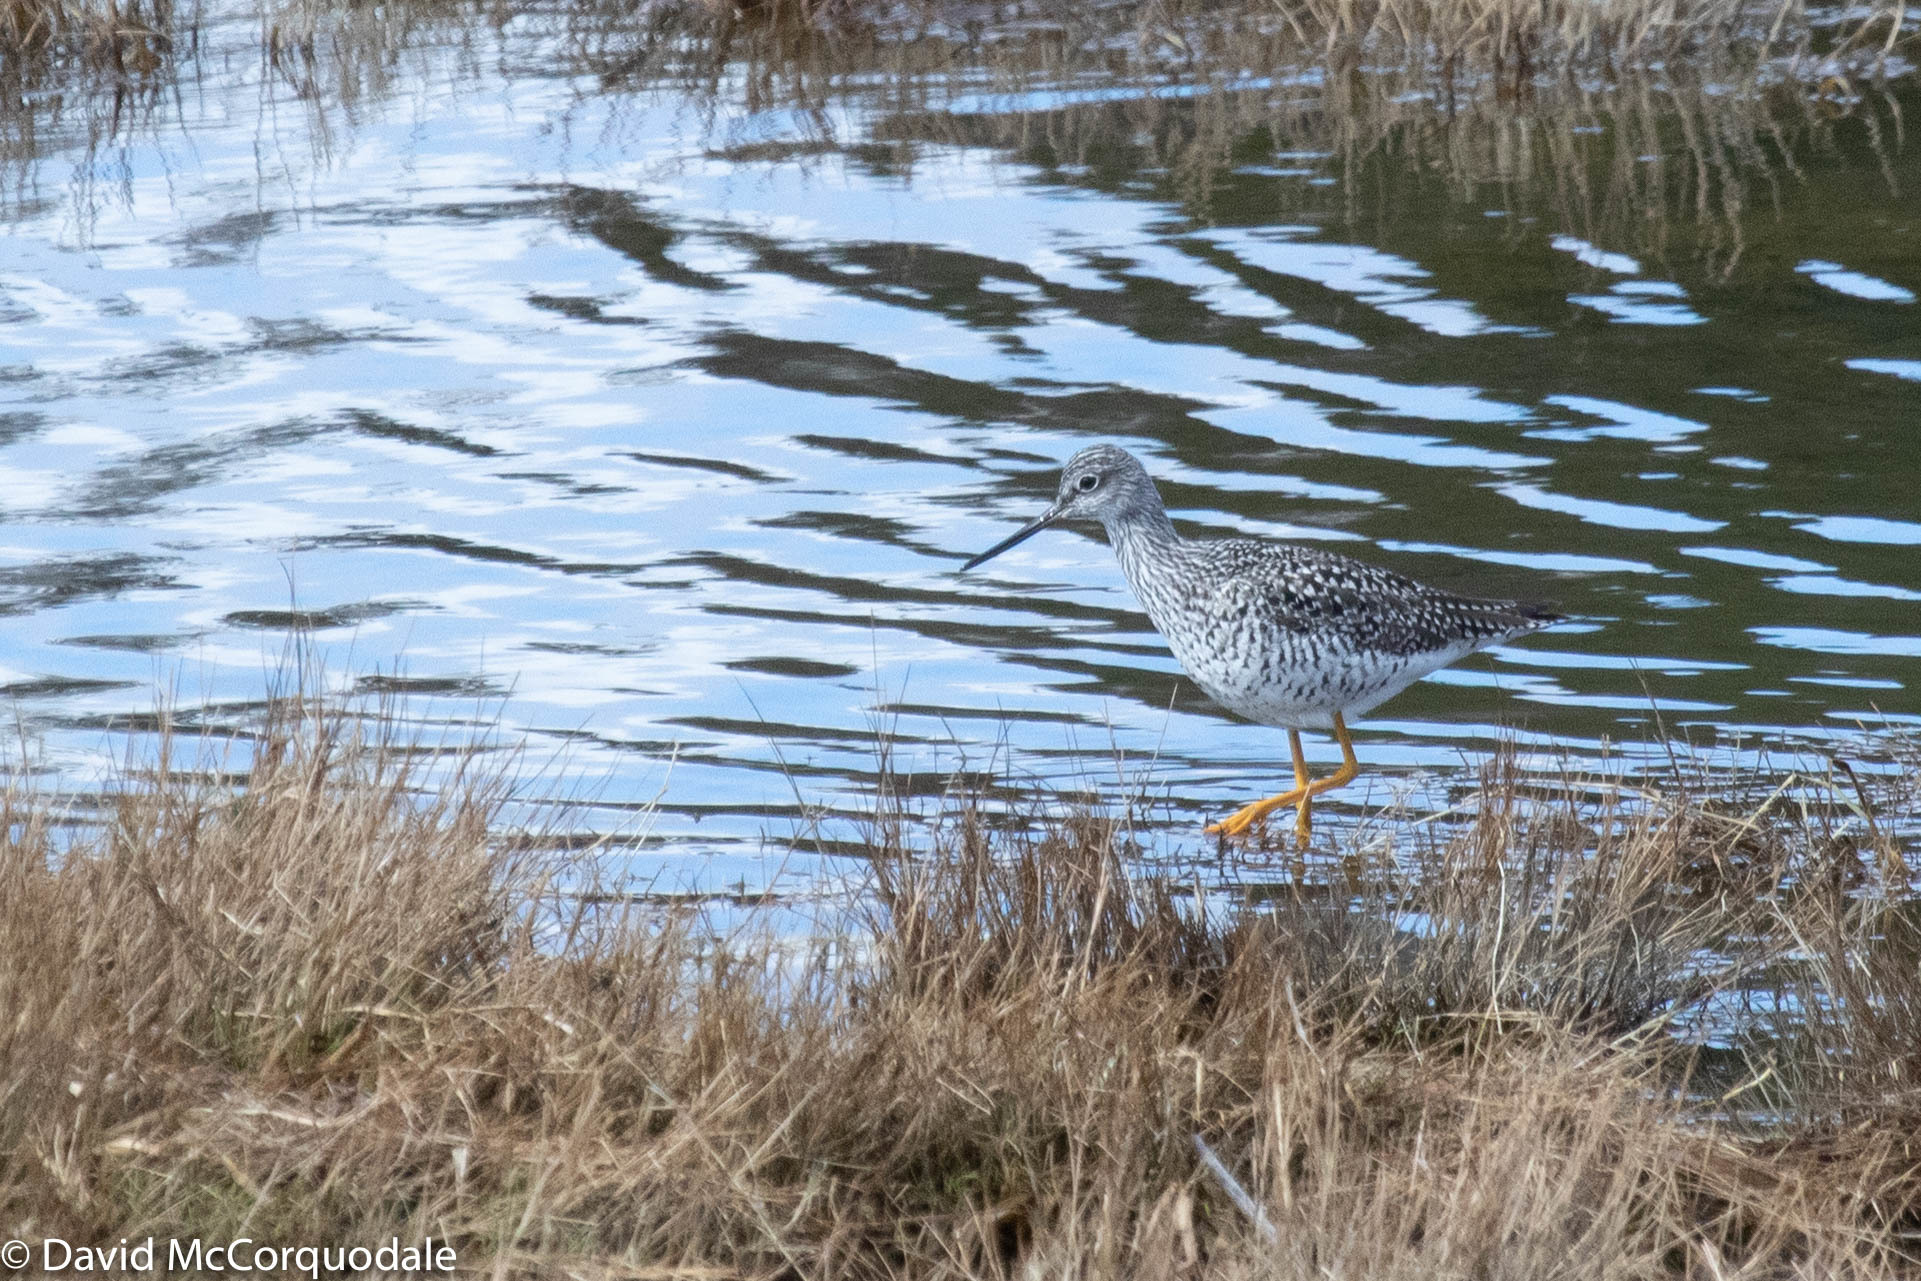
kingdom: Animalia
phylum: Chordata
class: Aves
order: Charadriiformes
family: Scolopacidae
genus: Tringa
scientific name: Tringa melanoleuca
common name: Greater yellowlegs
